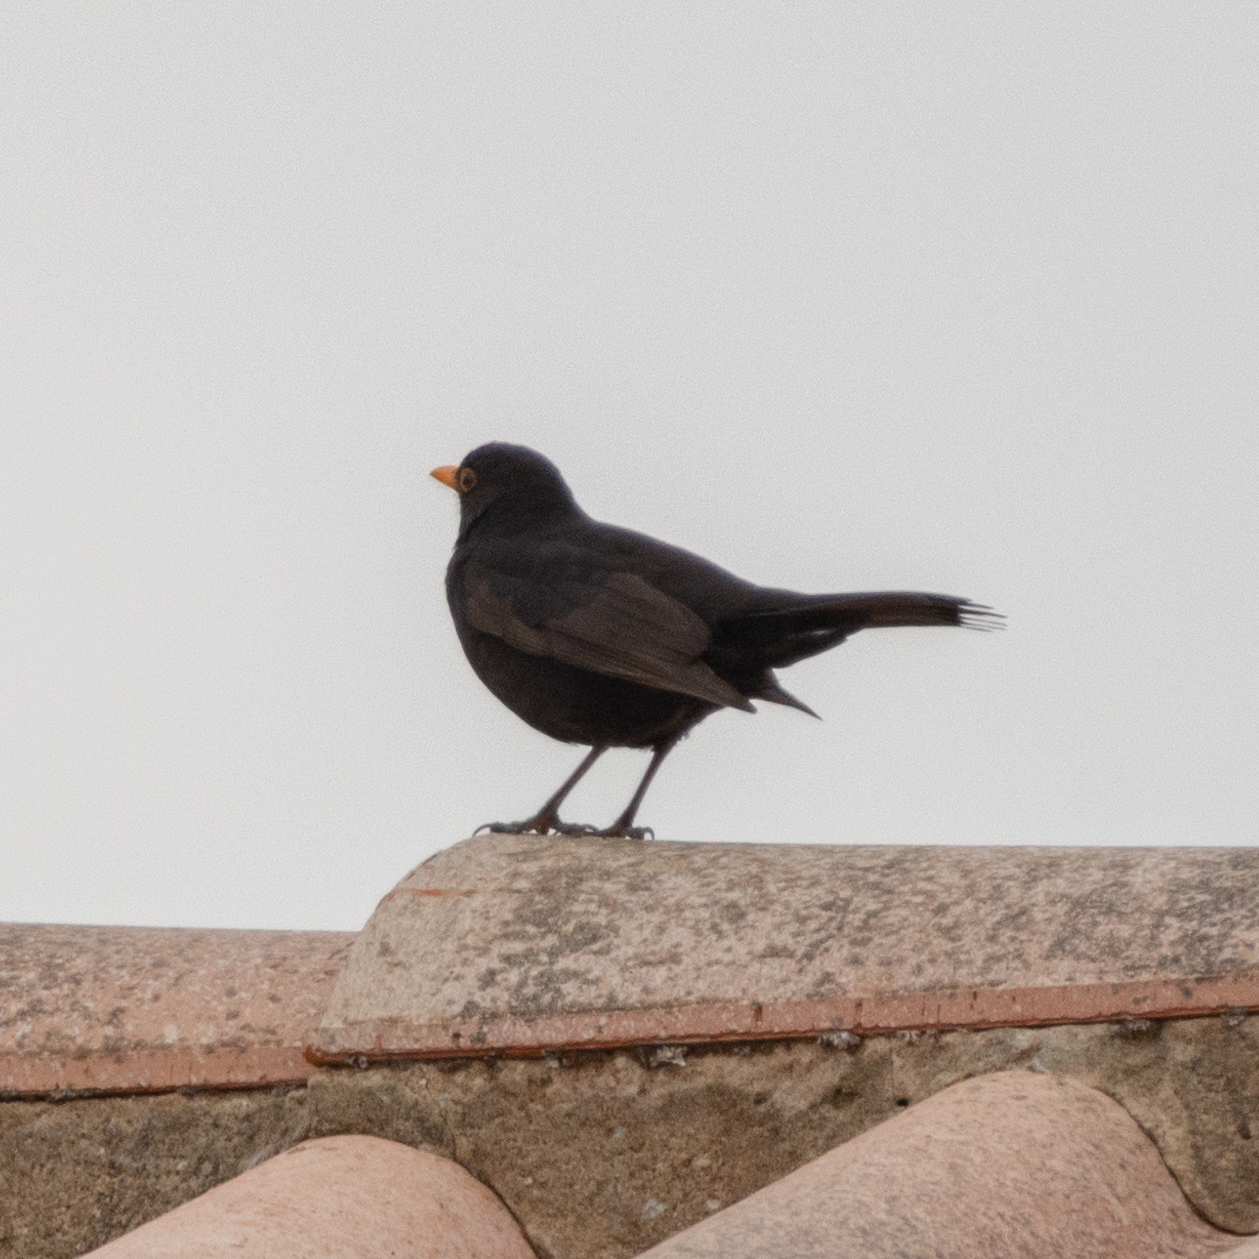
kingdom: Animalia
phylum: Chordata
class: Aves
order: Passeriformes
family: Turdidae
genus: Turdus
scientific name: Turdus merula
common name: Common blackbird
